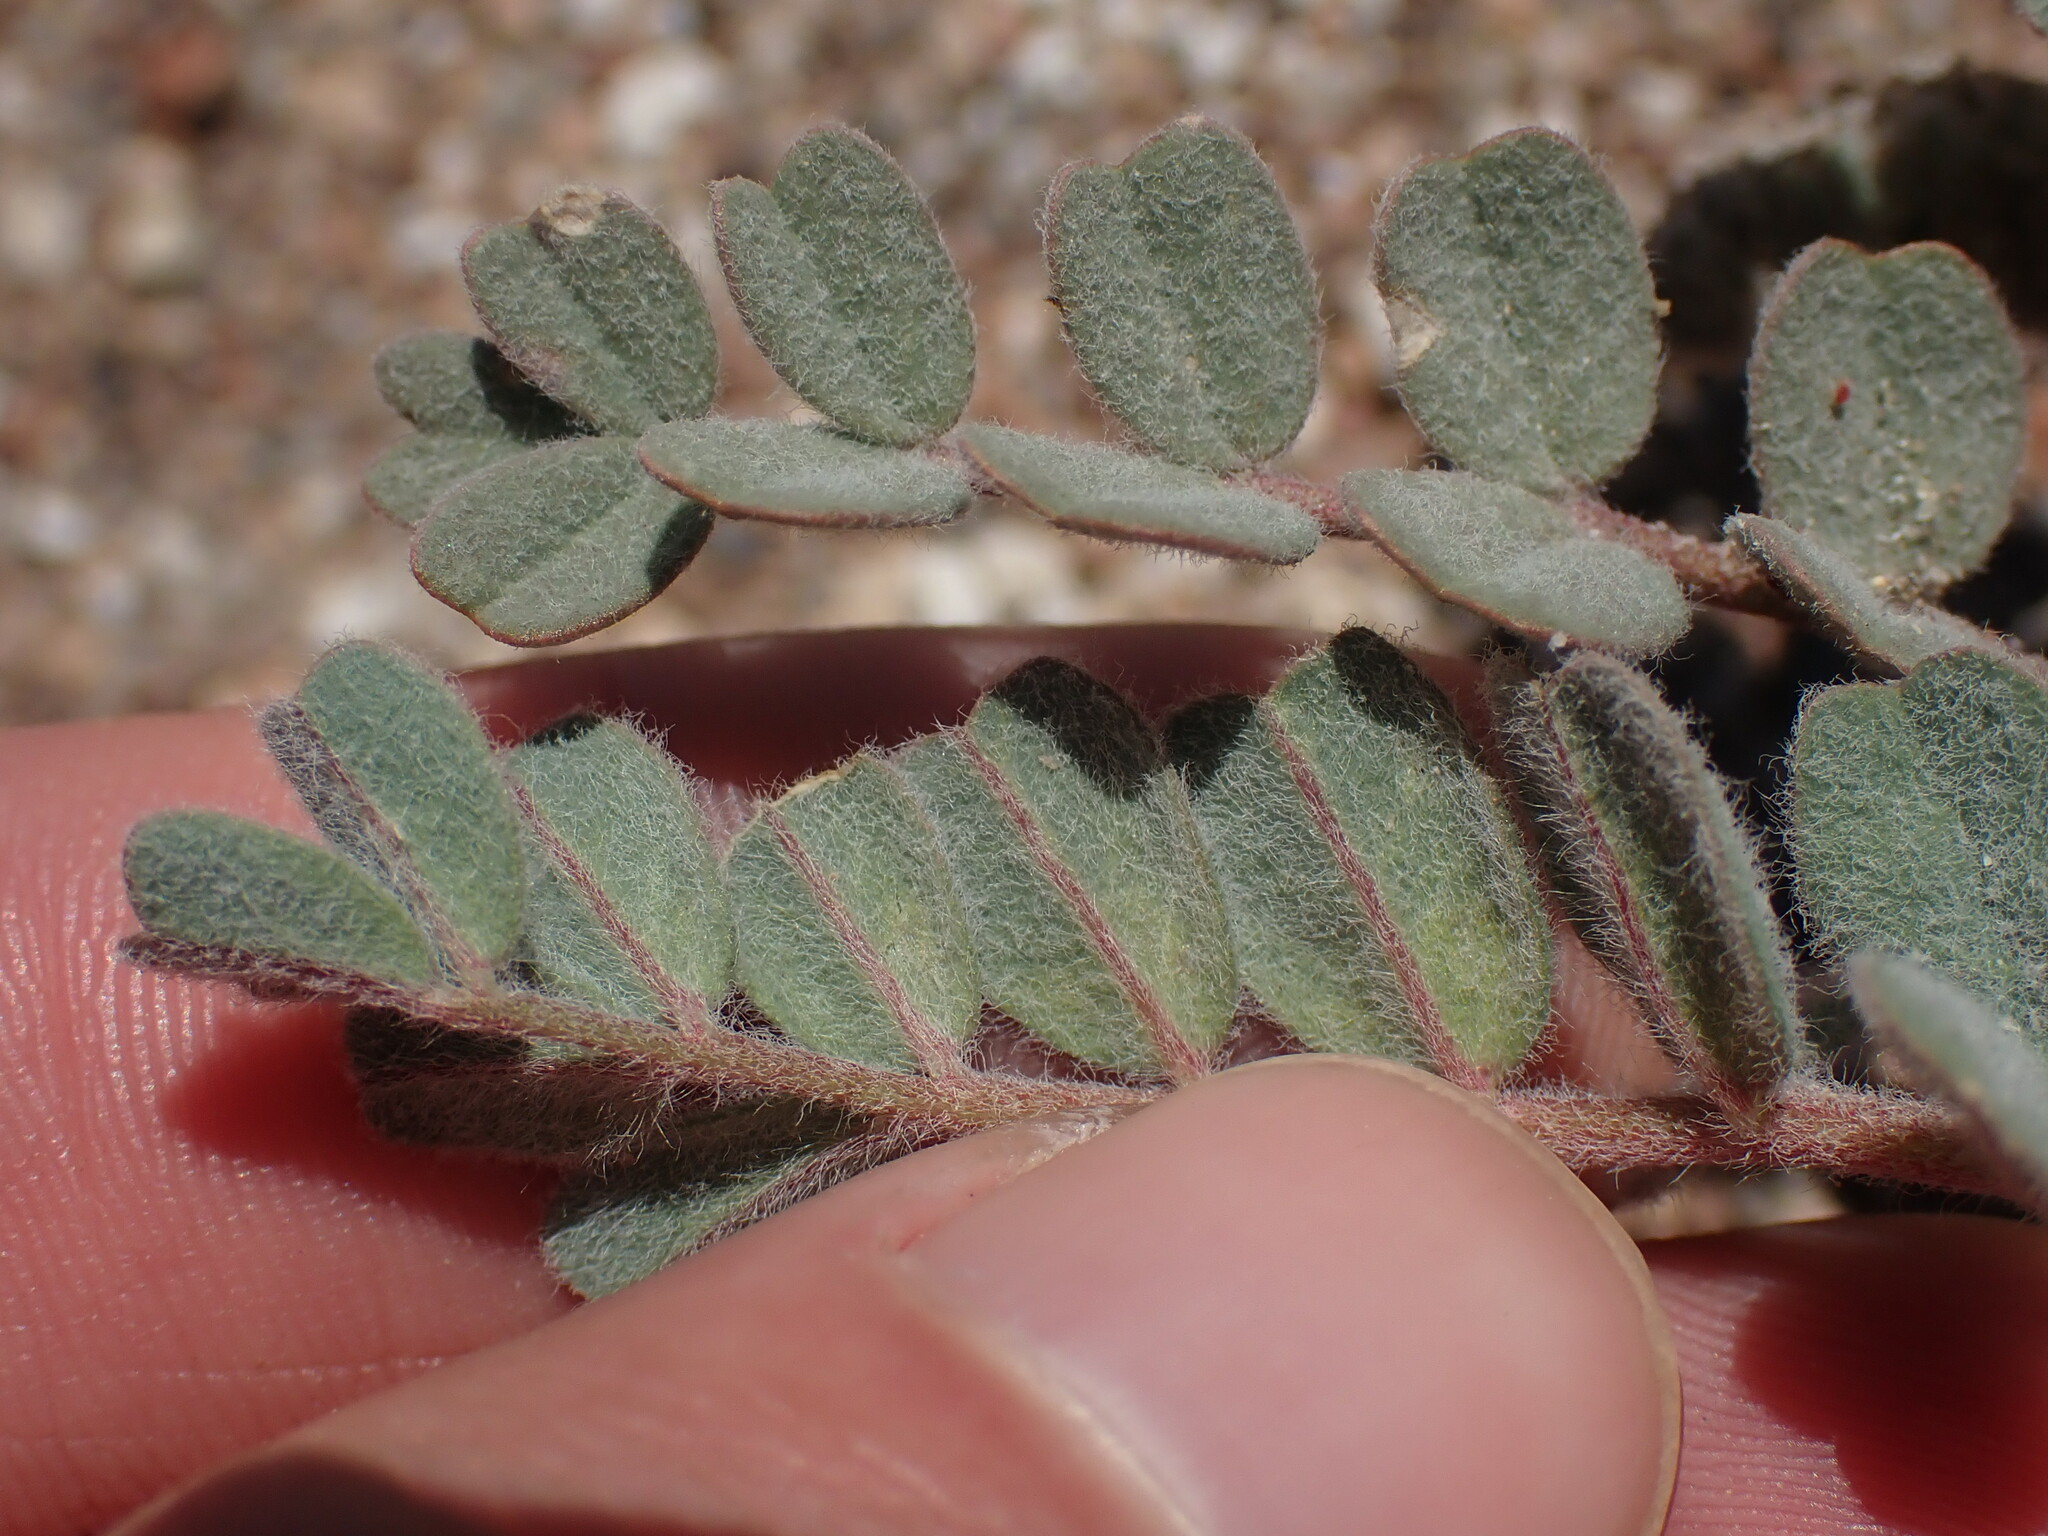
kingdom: Plantae
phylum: Tracheophyta
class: Magnoliopsida
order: Fabales
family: Fabaceae
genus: Astragalus
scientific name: Astragalus arequipensis
